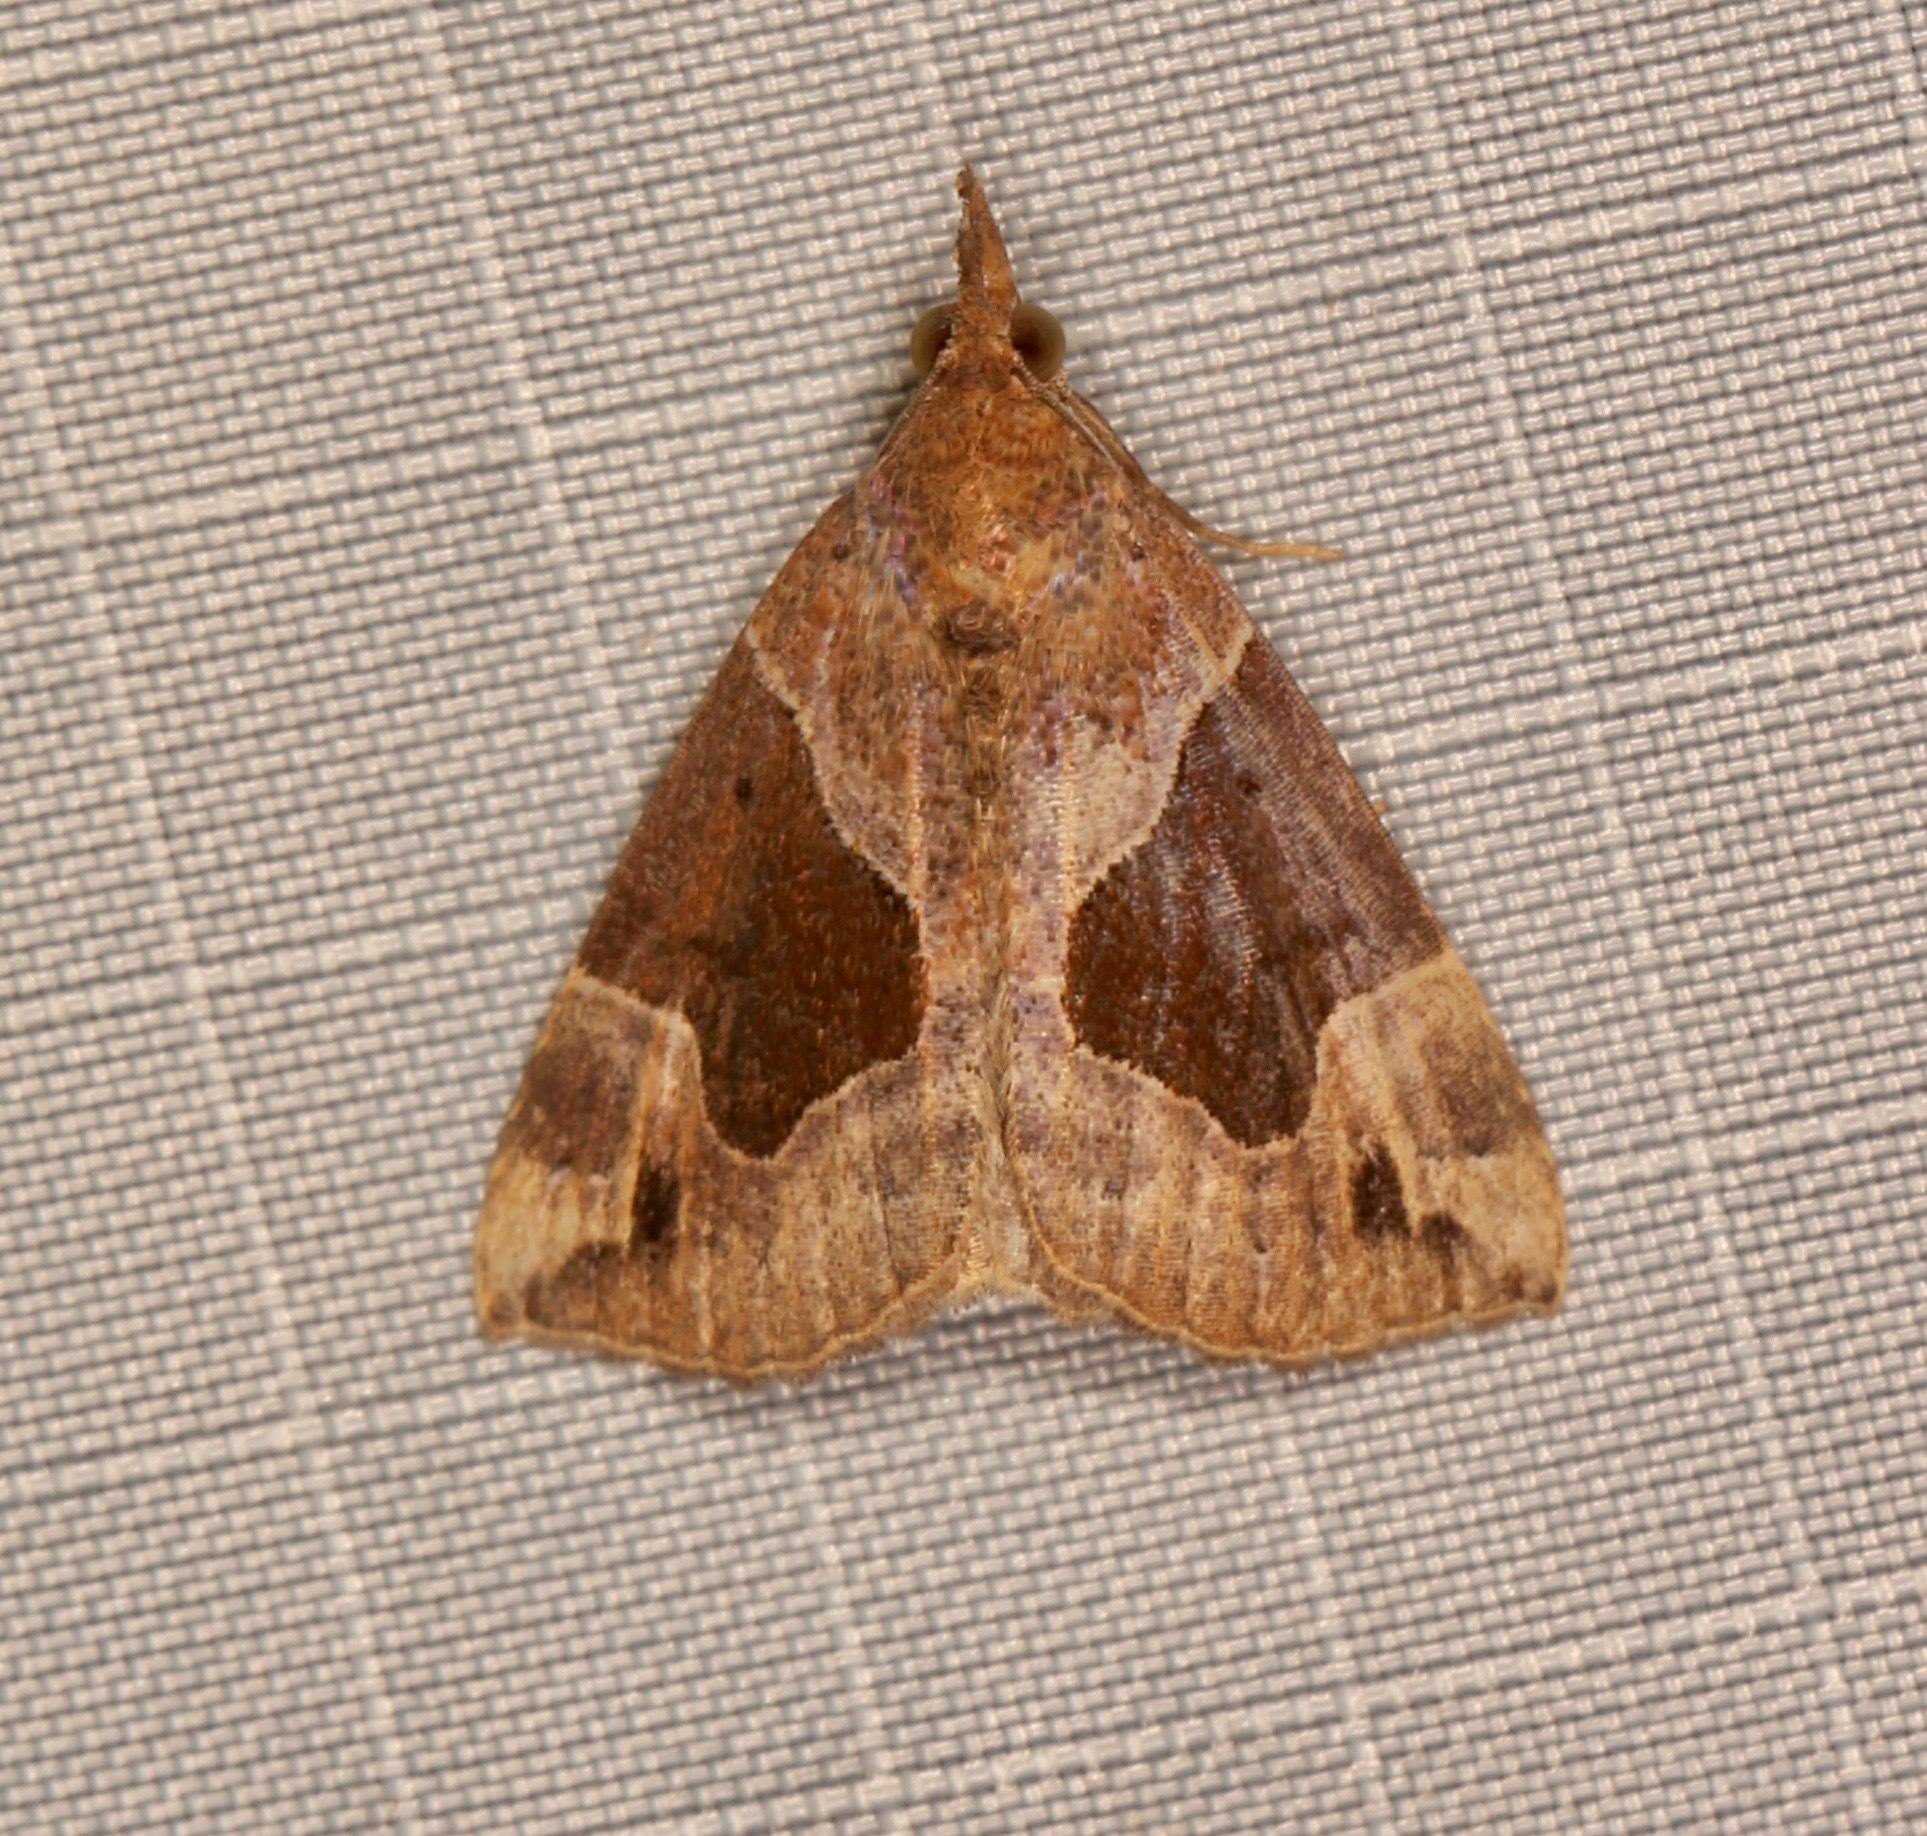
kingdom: Animalia
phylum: Arthropoda
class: Insecta
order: Lepidoptera
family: Erebidae
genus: Hypena
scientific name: Hypena manalis
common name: Flowing-line bomolocha moth
